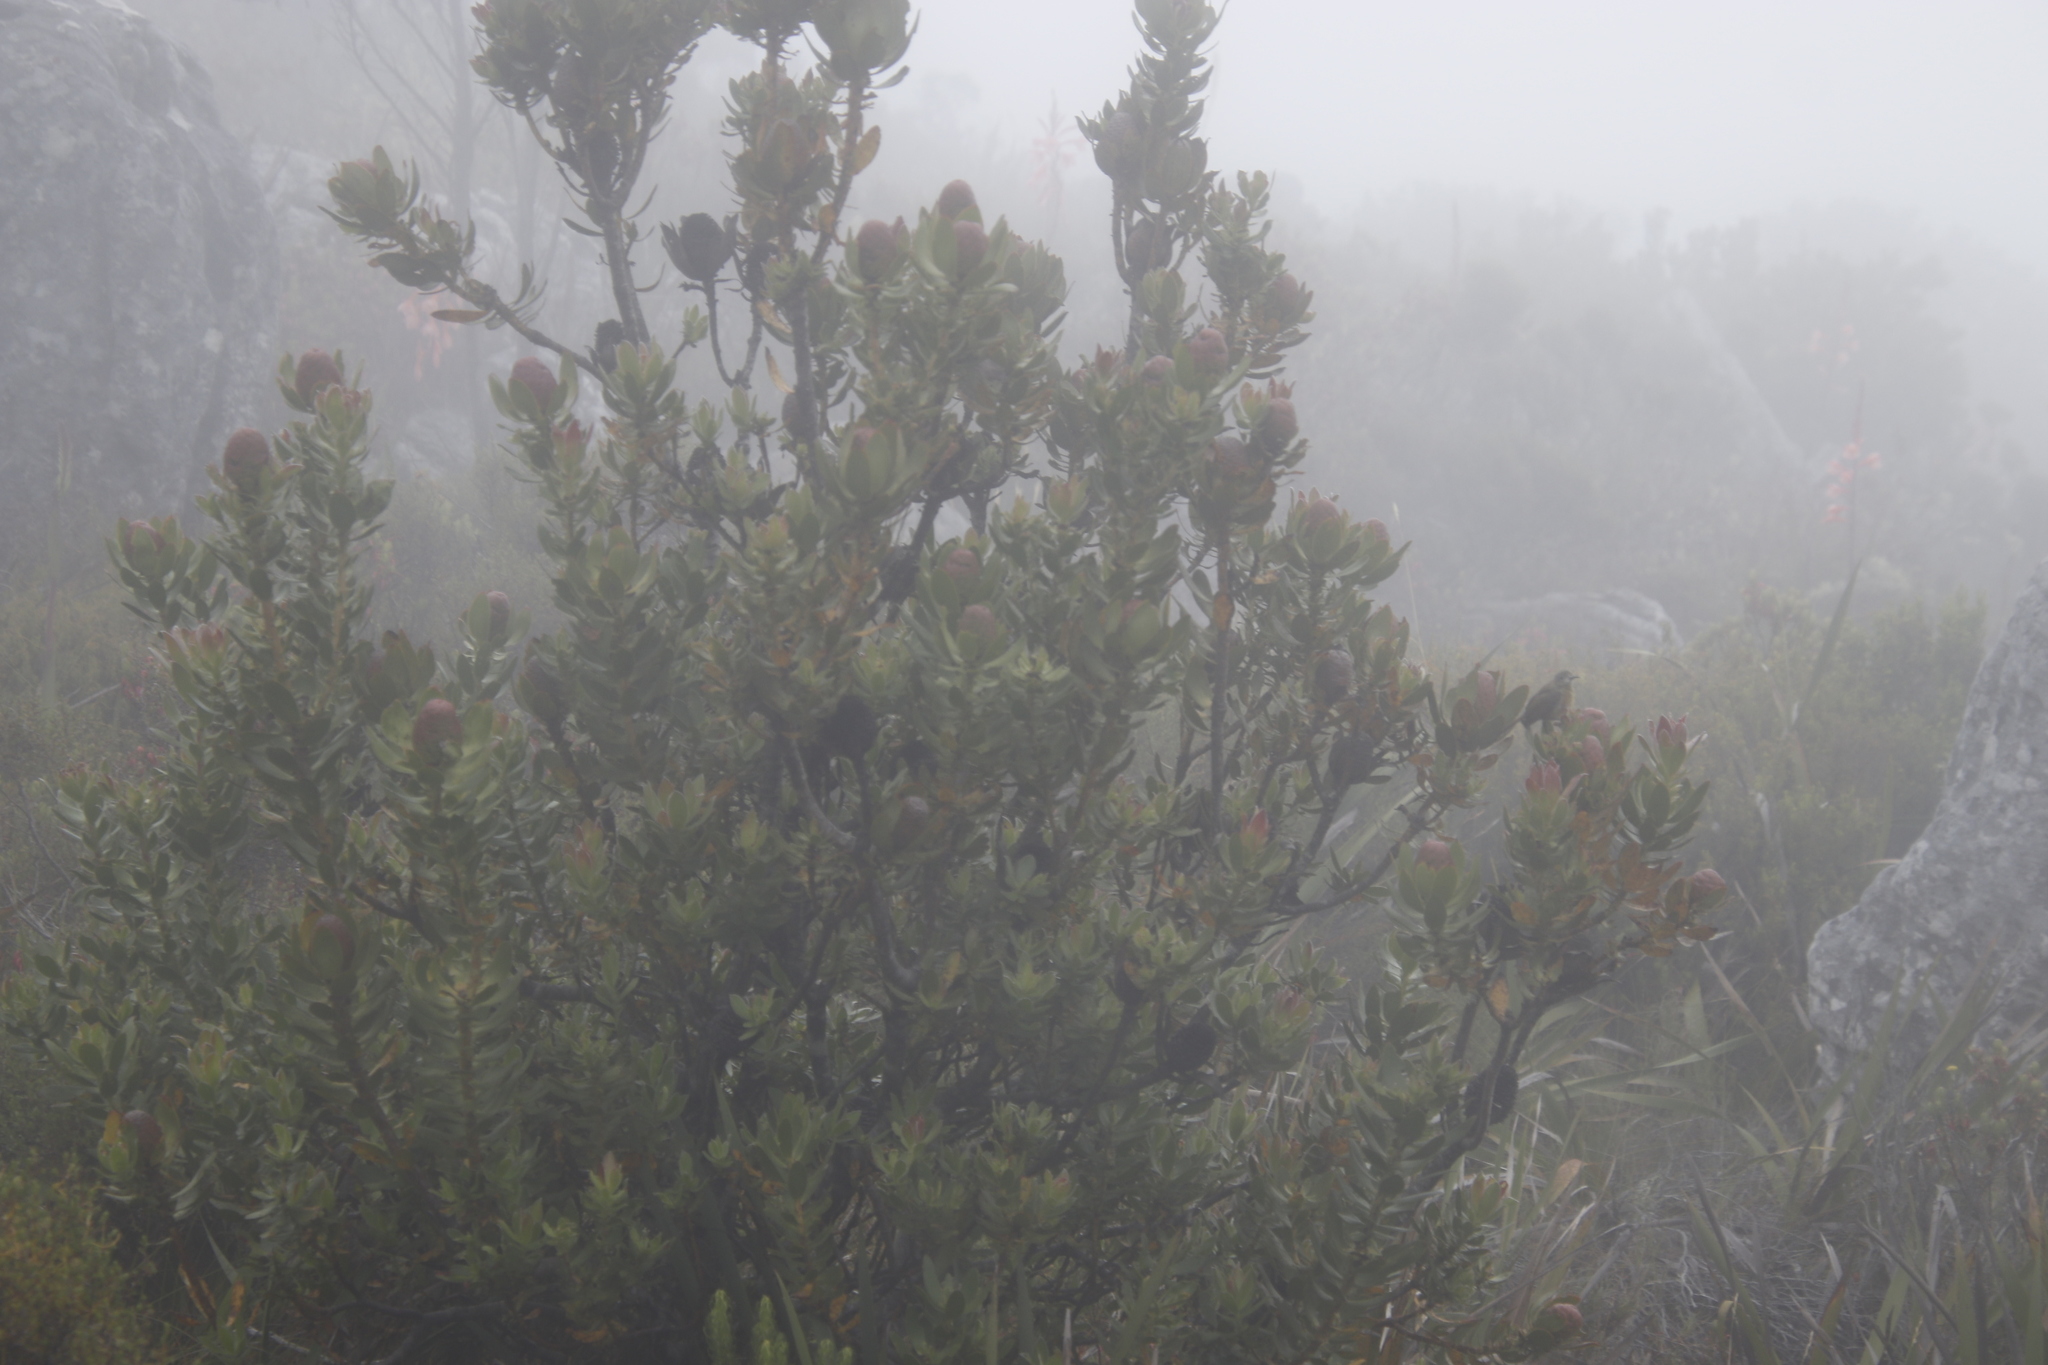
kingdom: Plantae
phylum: Tracheophyta
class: Magnoliopsida
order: Proteales
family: Proteaceae
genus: Leucadendron
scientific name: Leucadendron strobilinum
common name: Mountain rose
